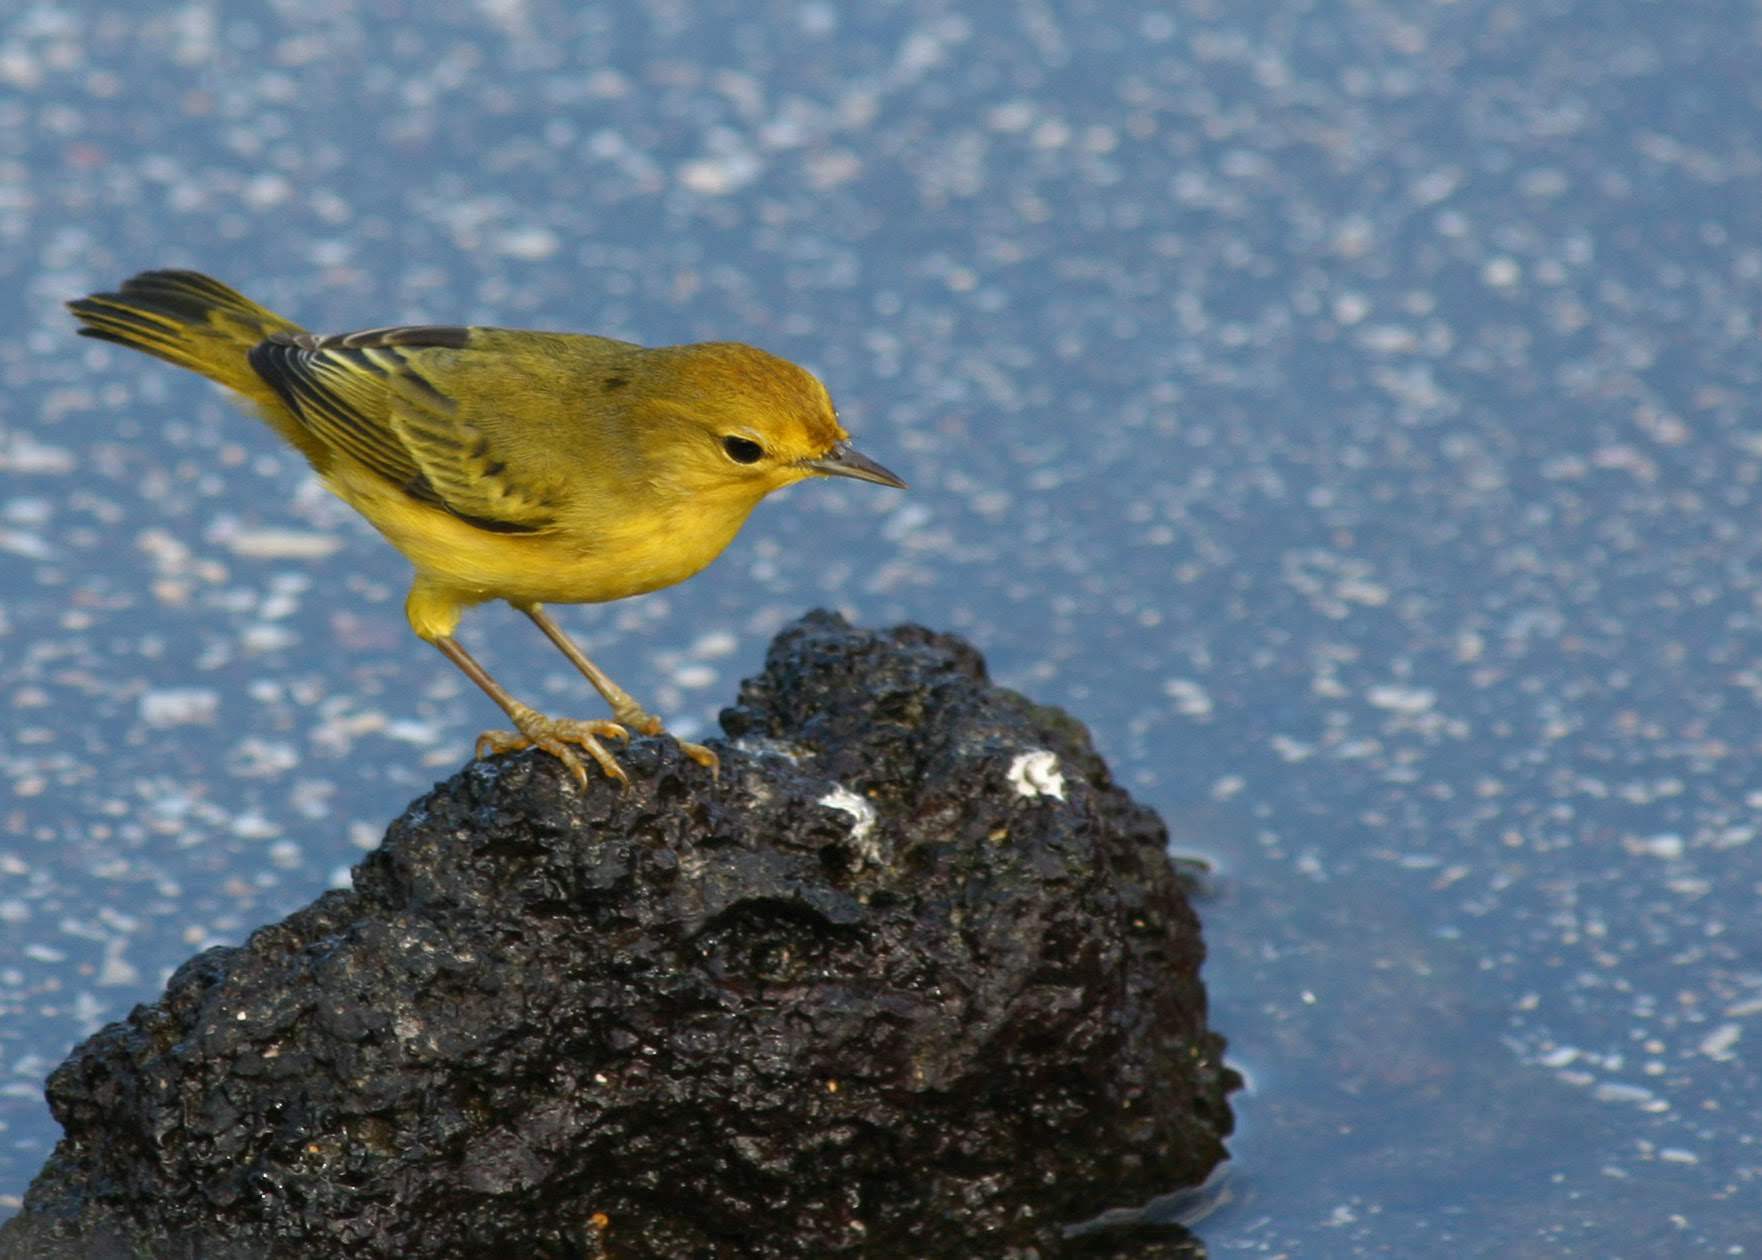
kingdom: Animalia
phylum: Chordata
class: Aves
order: Passeriformes
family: Parulidae
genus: Setophaga
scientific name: Setophaga petechia
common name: Yellow warbler
